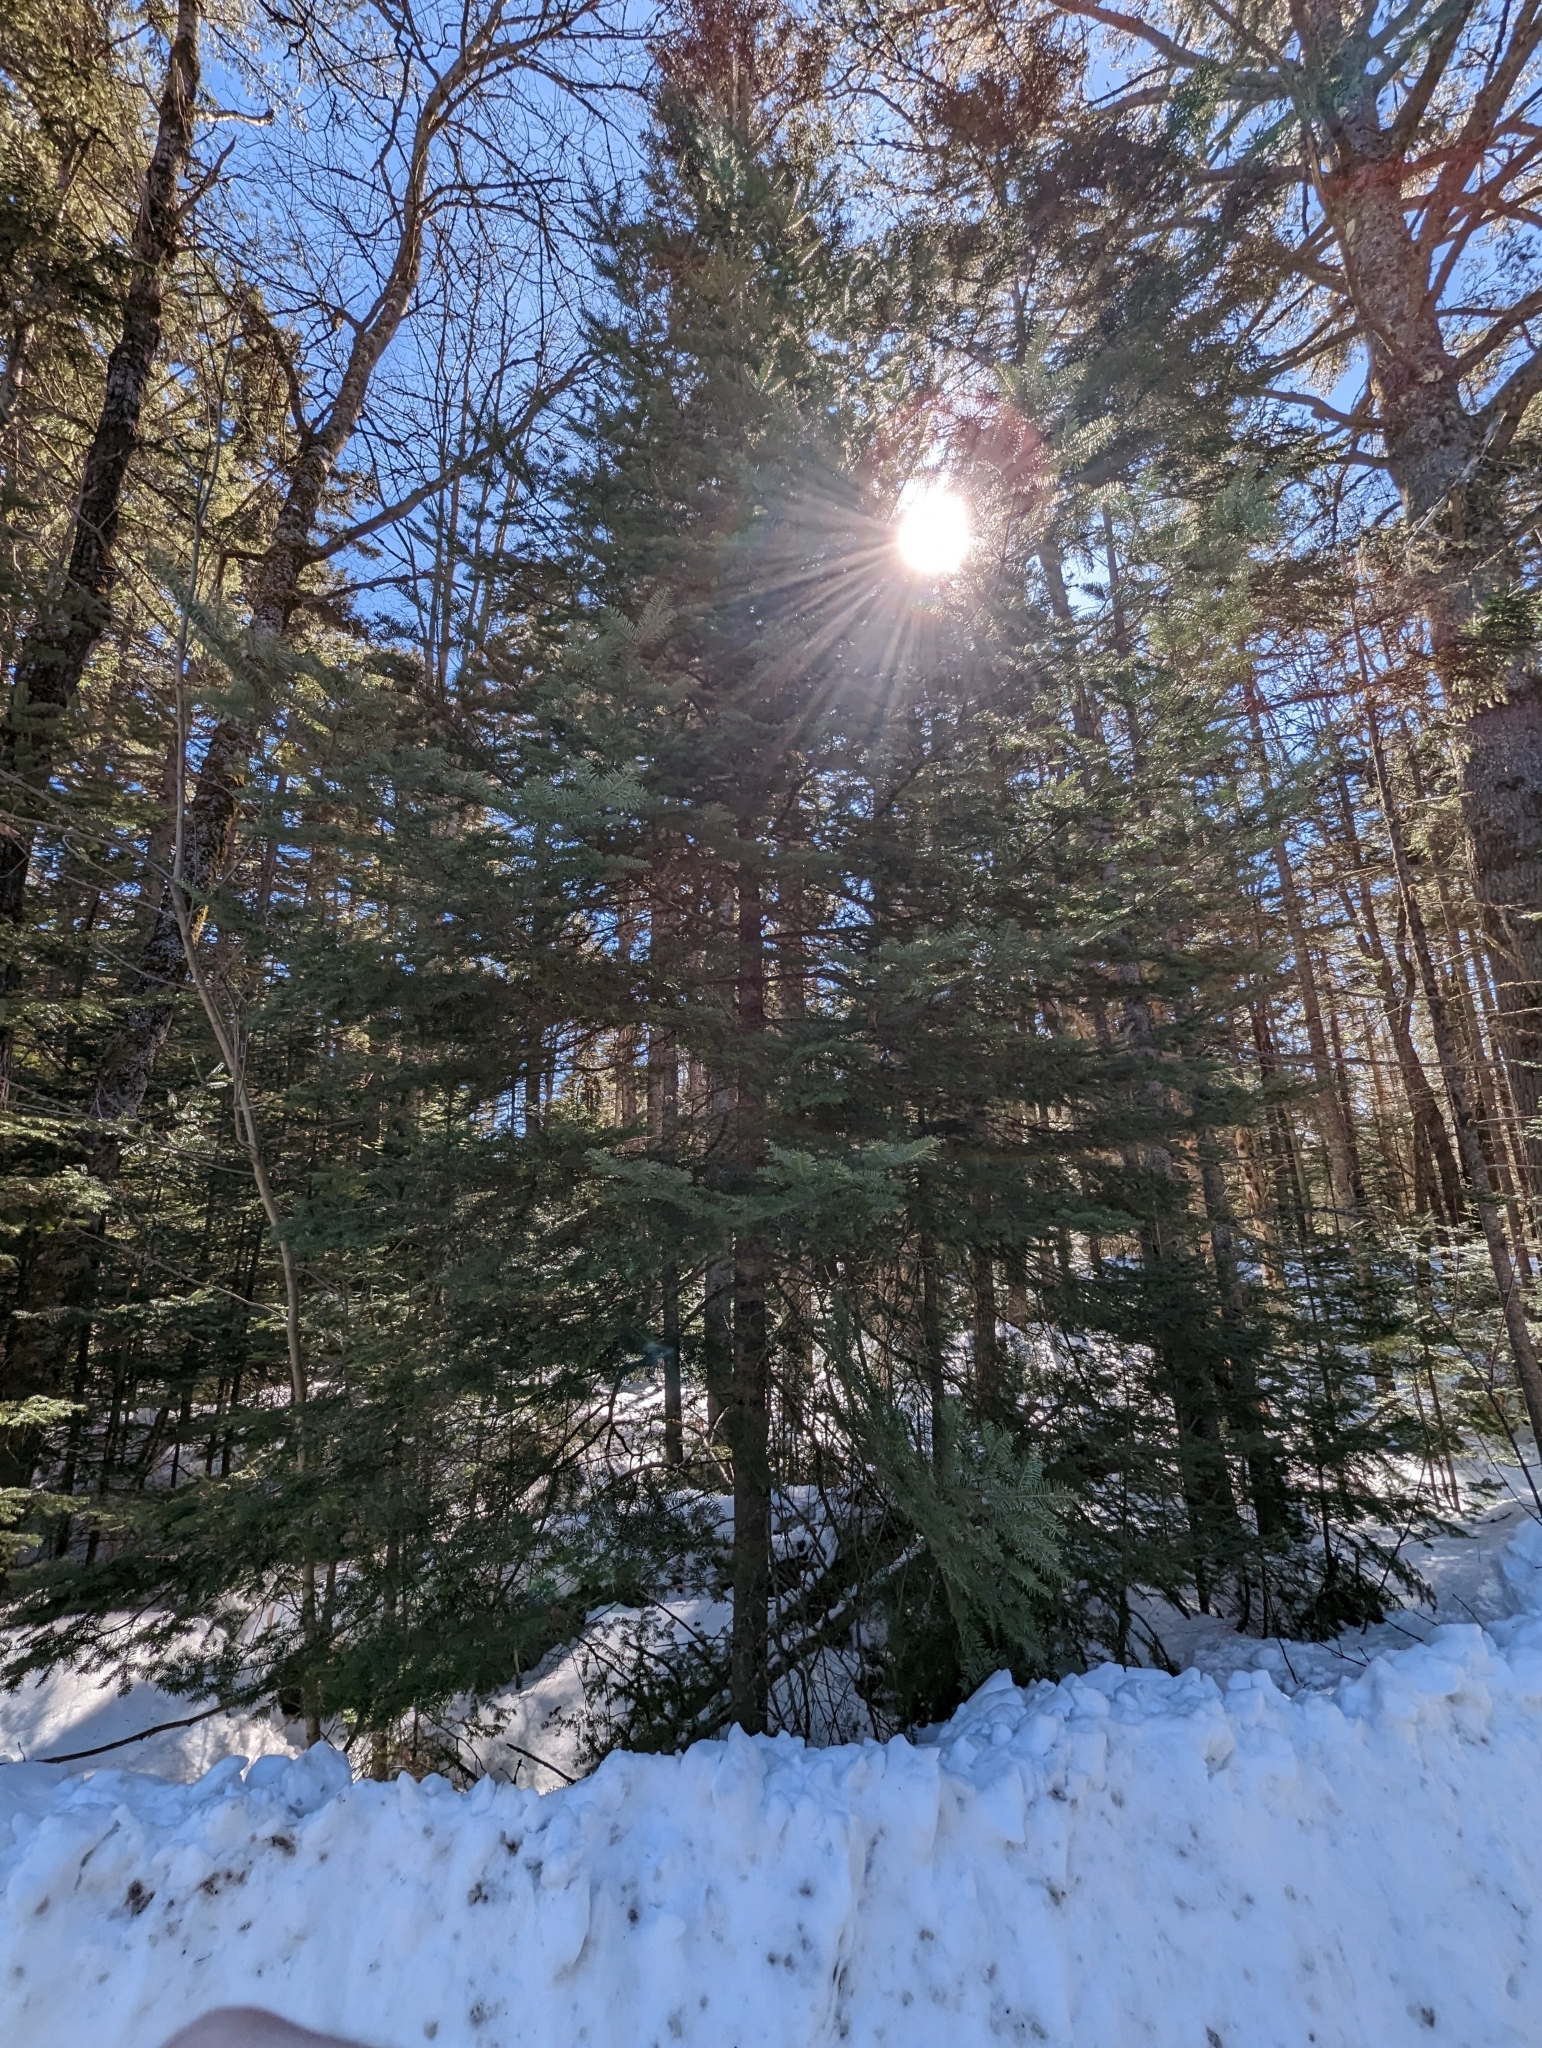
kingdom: Plantae
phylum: Tracheophyta
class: Pinopsida
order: Pinales
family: Pinaceae
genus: Abies
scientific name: Abies balsamea
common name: Balsam fir
